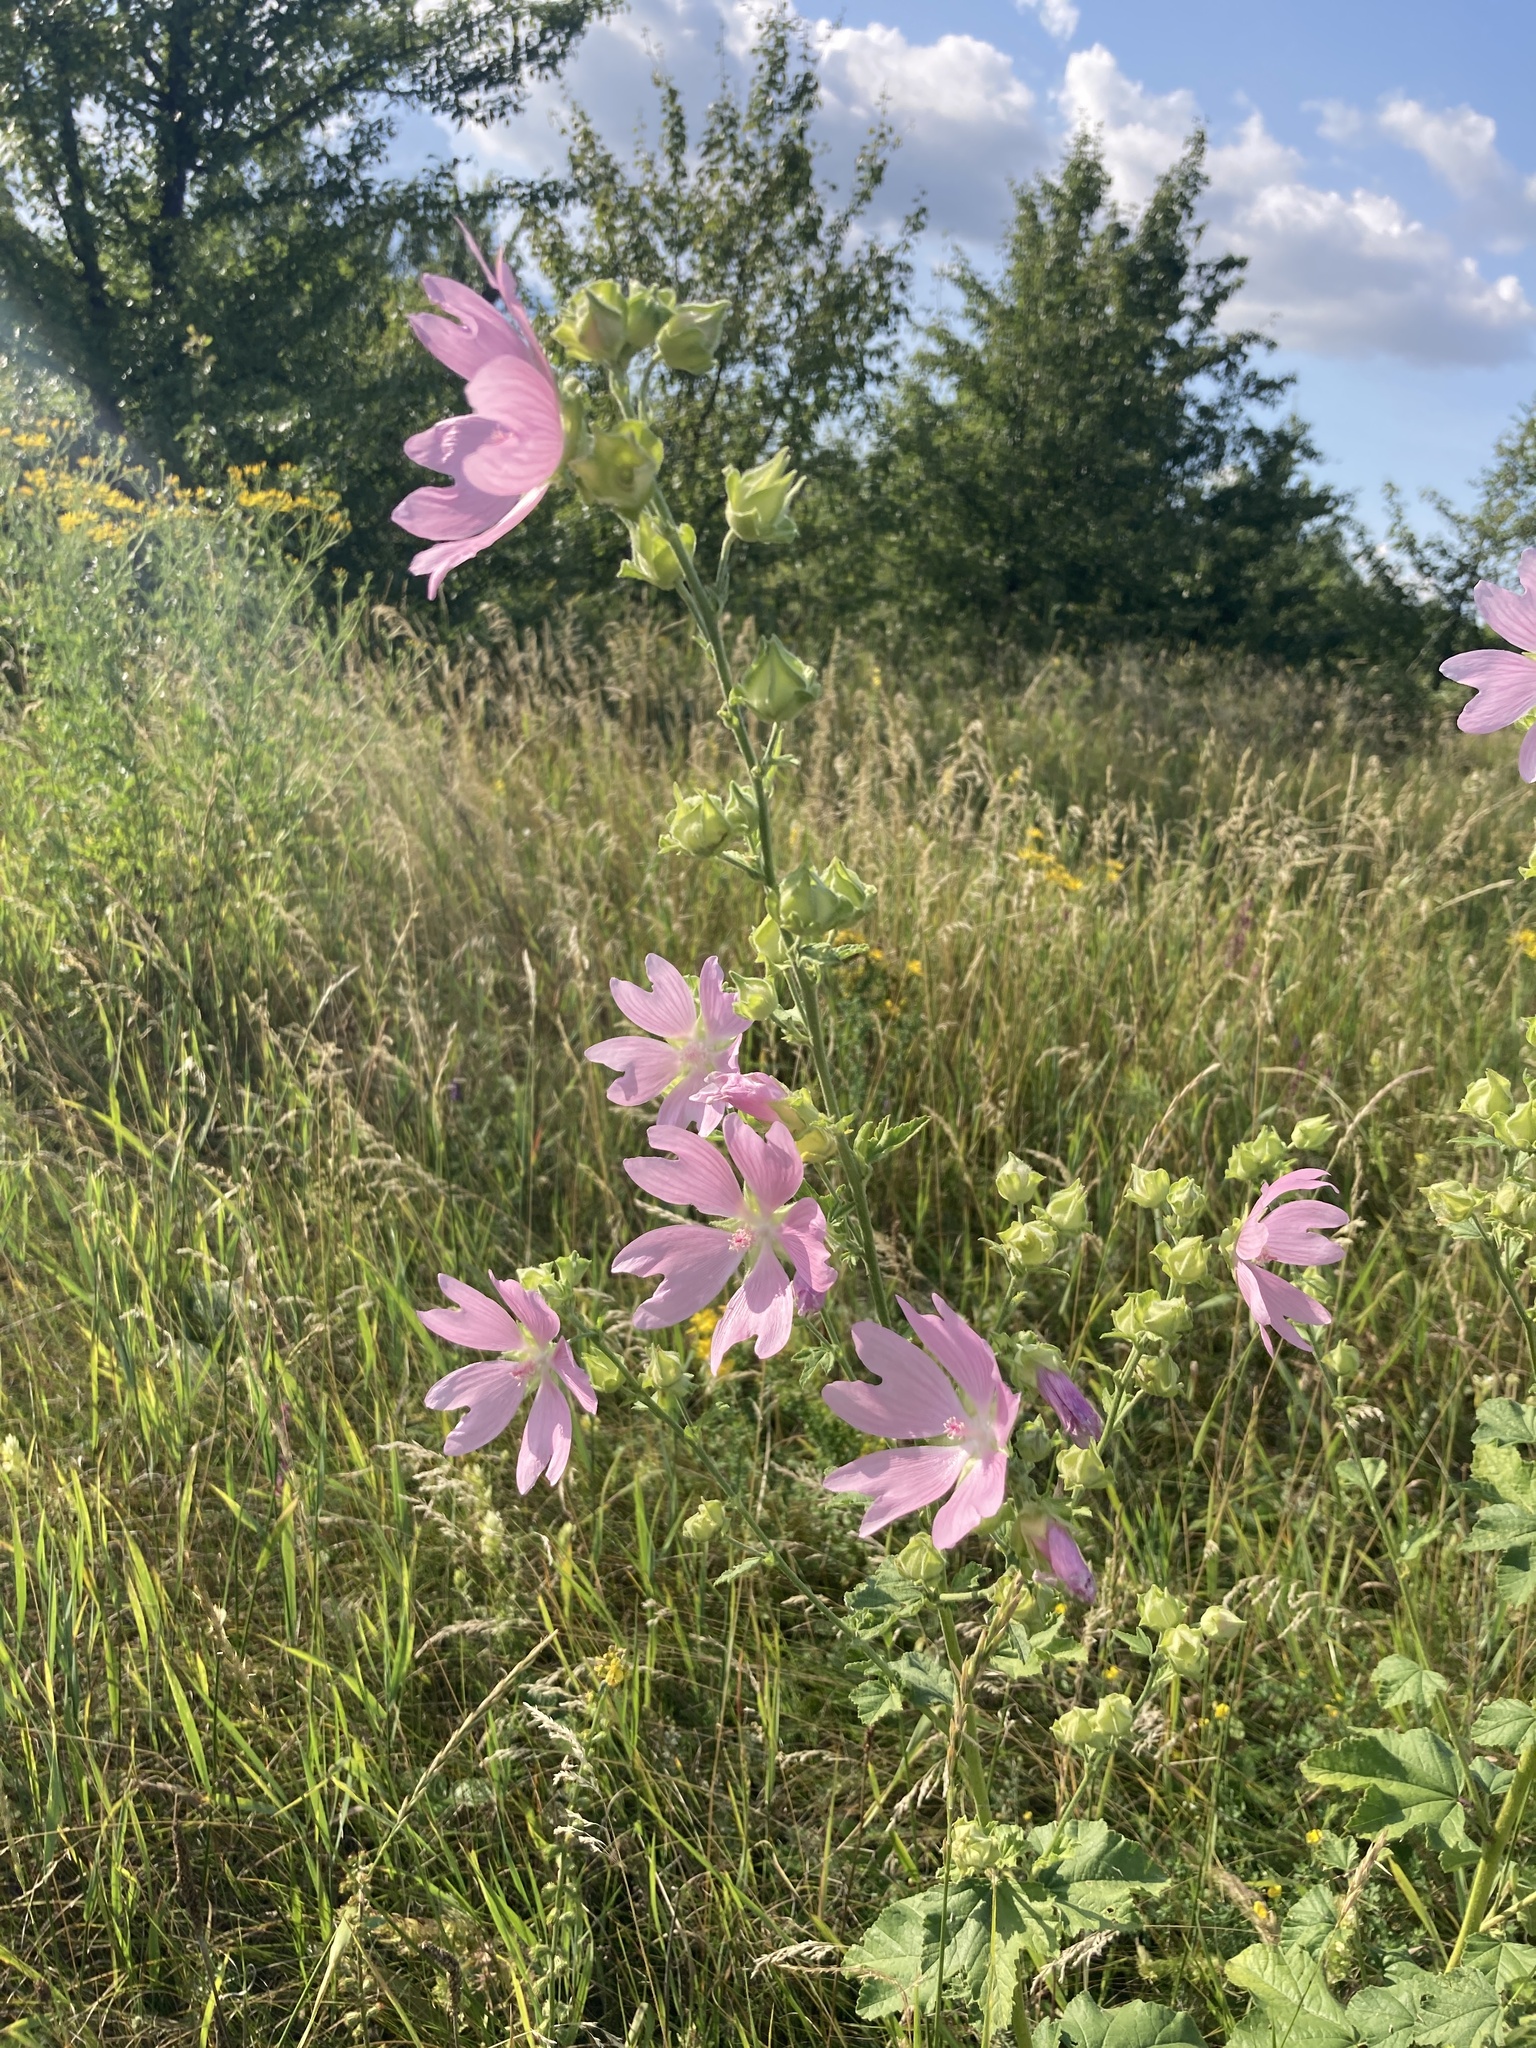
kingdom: Plantae
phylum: Tracheophyta
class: Magnoliopsida
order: Malvales
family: Malvaceae
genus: Malva
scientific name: Malva thuringiaca
